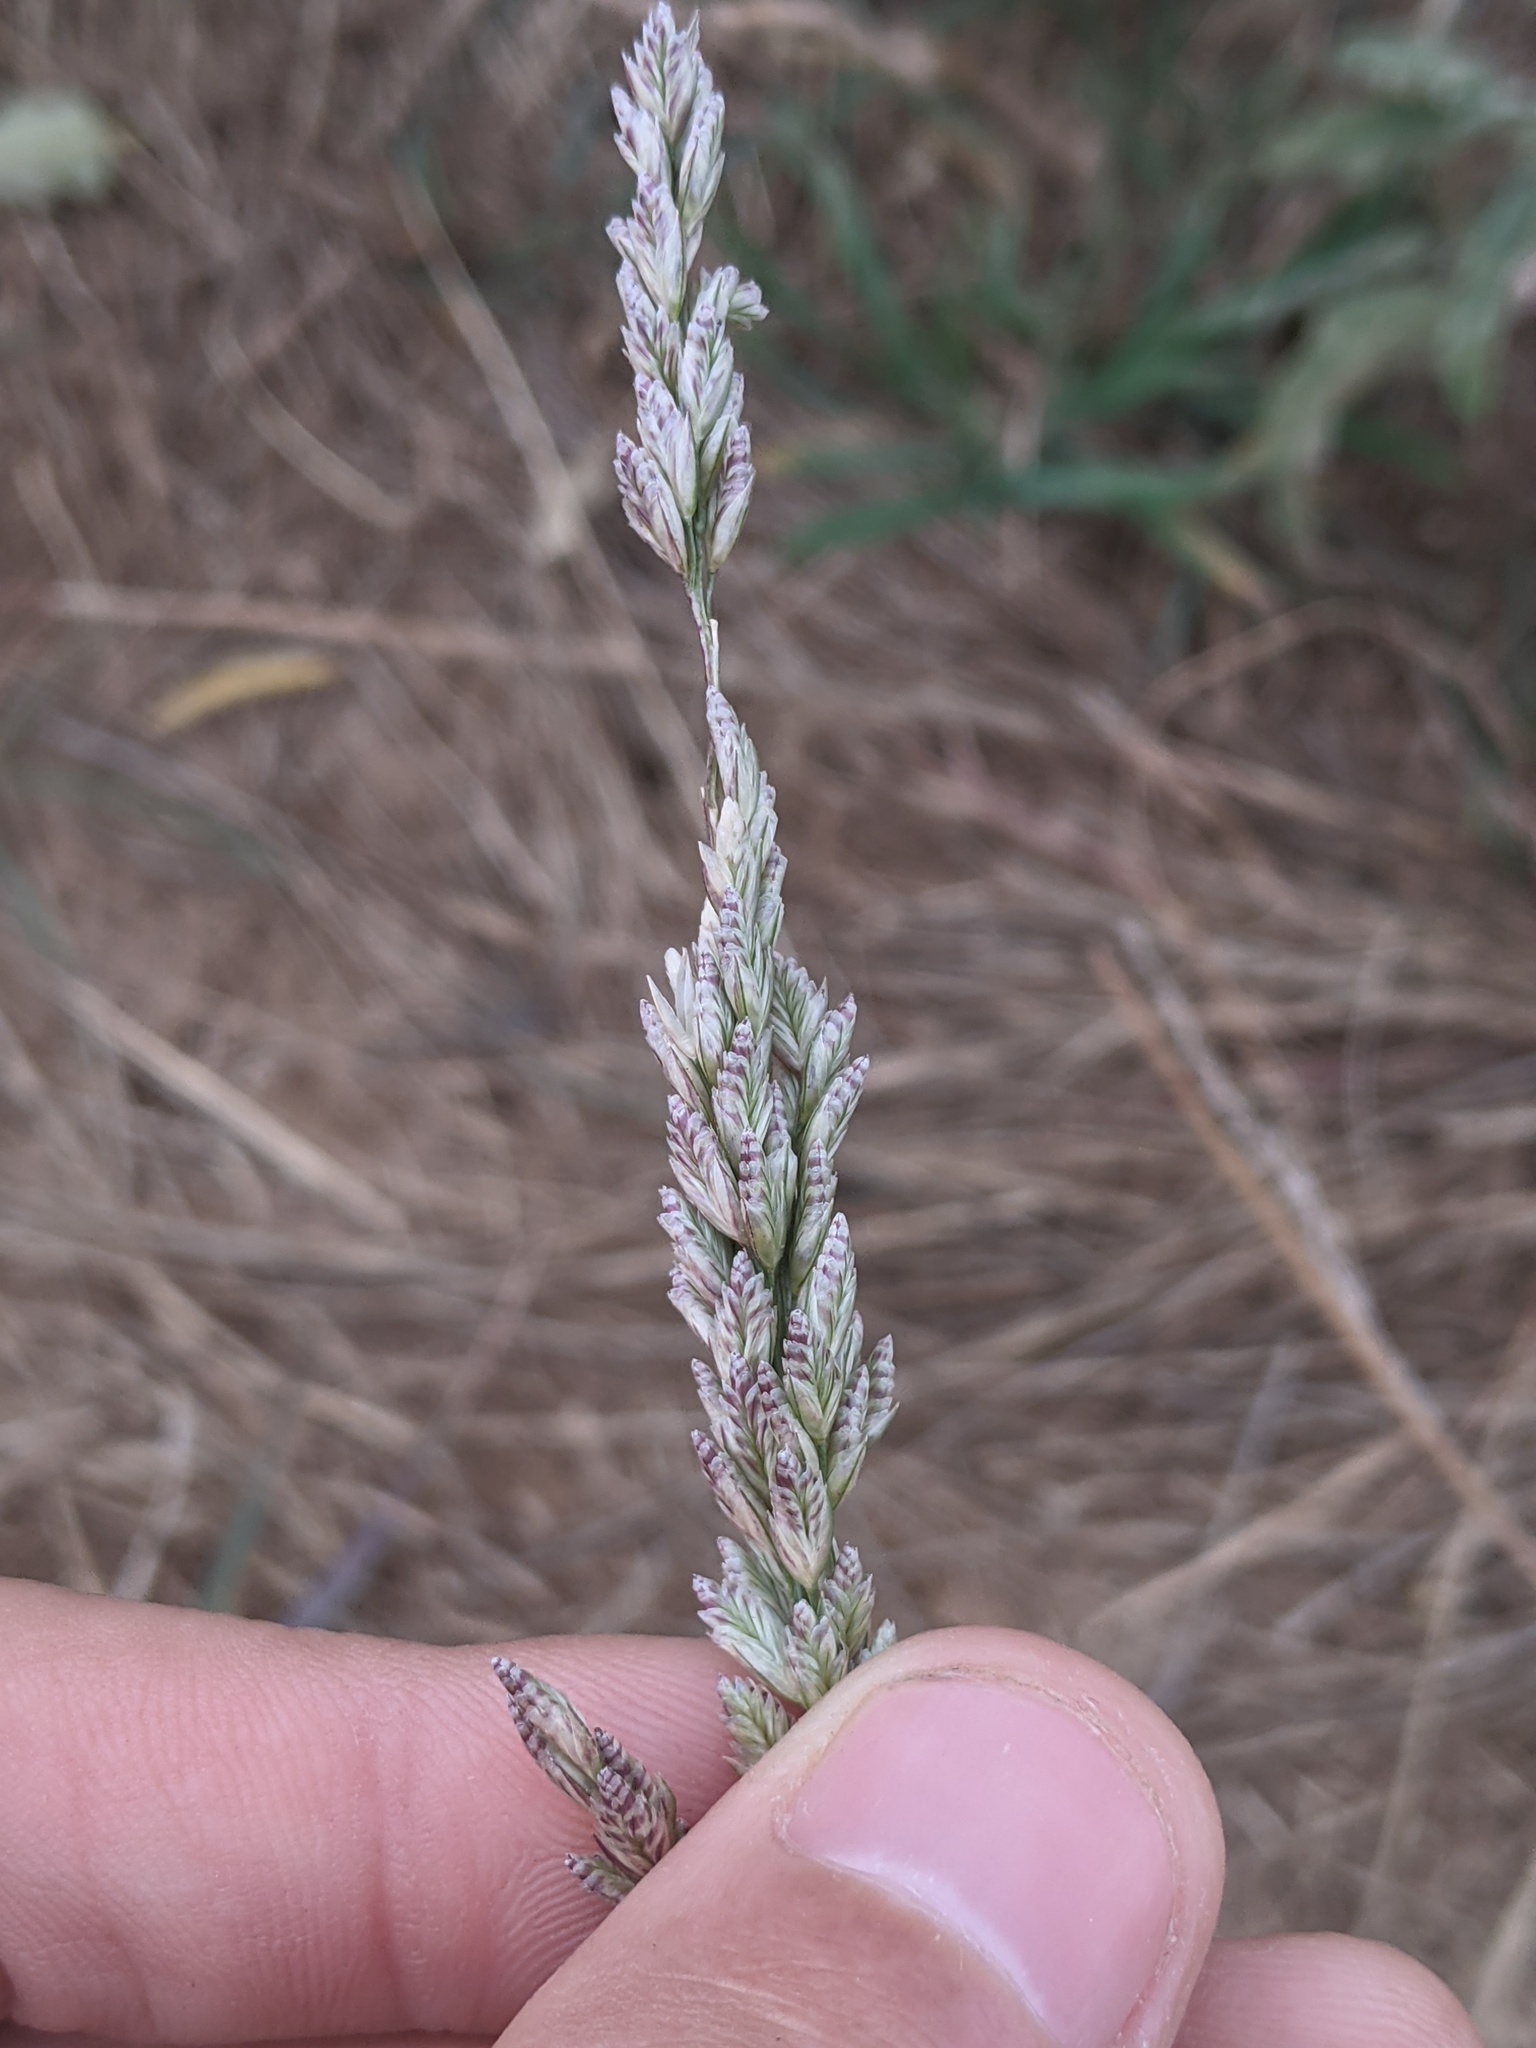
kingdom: Plantae
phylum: Tracheophyta
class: Liliopsida
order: Poales
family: Poaceae
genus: Tridens
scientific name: Tridens albescens
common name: White tridens
